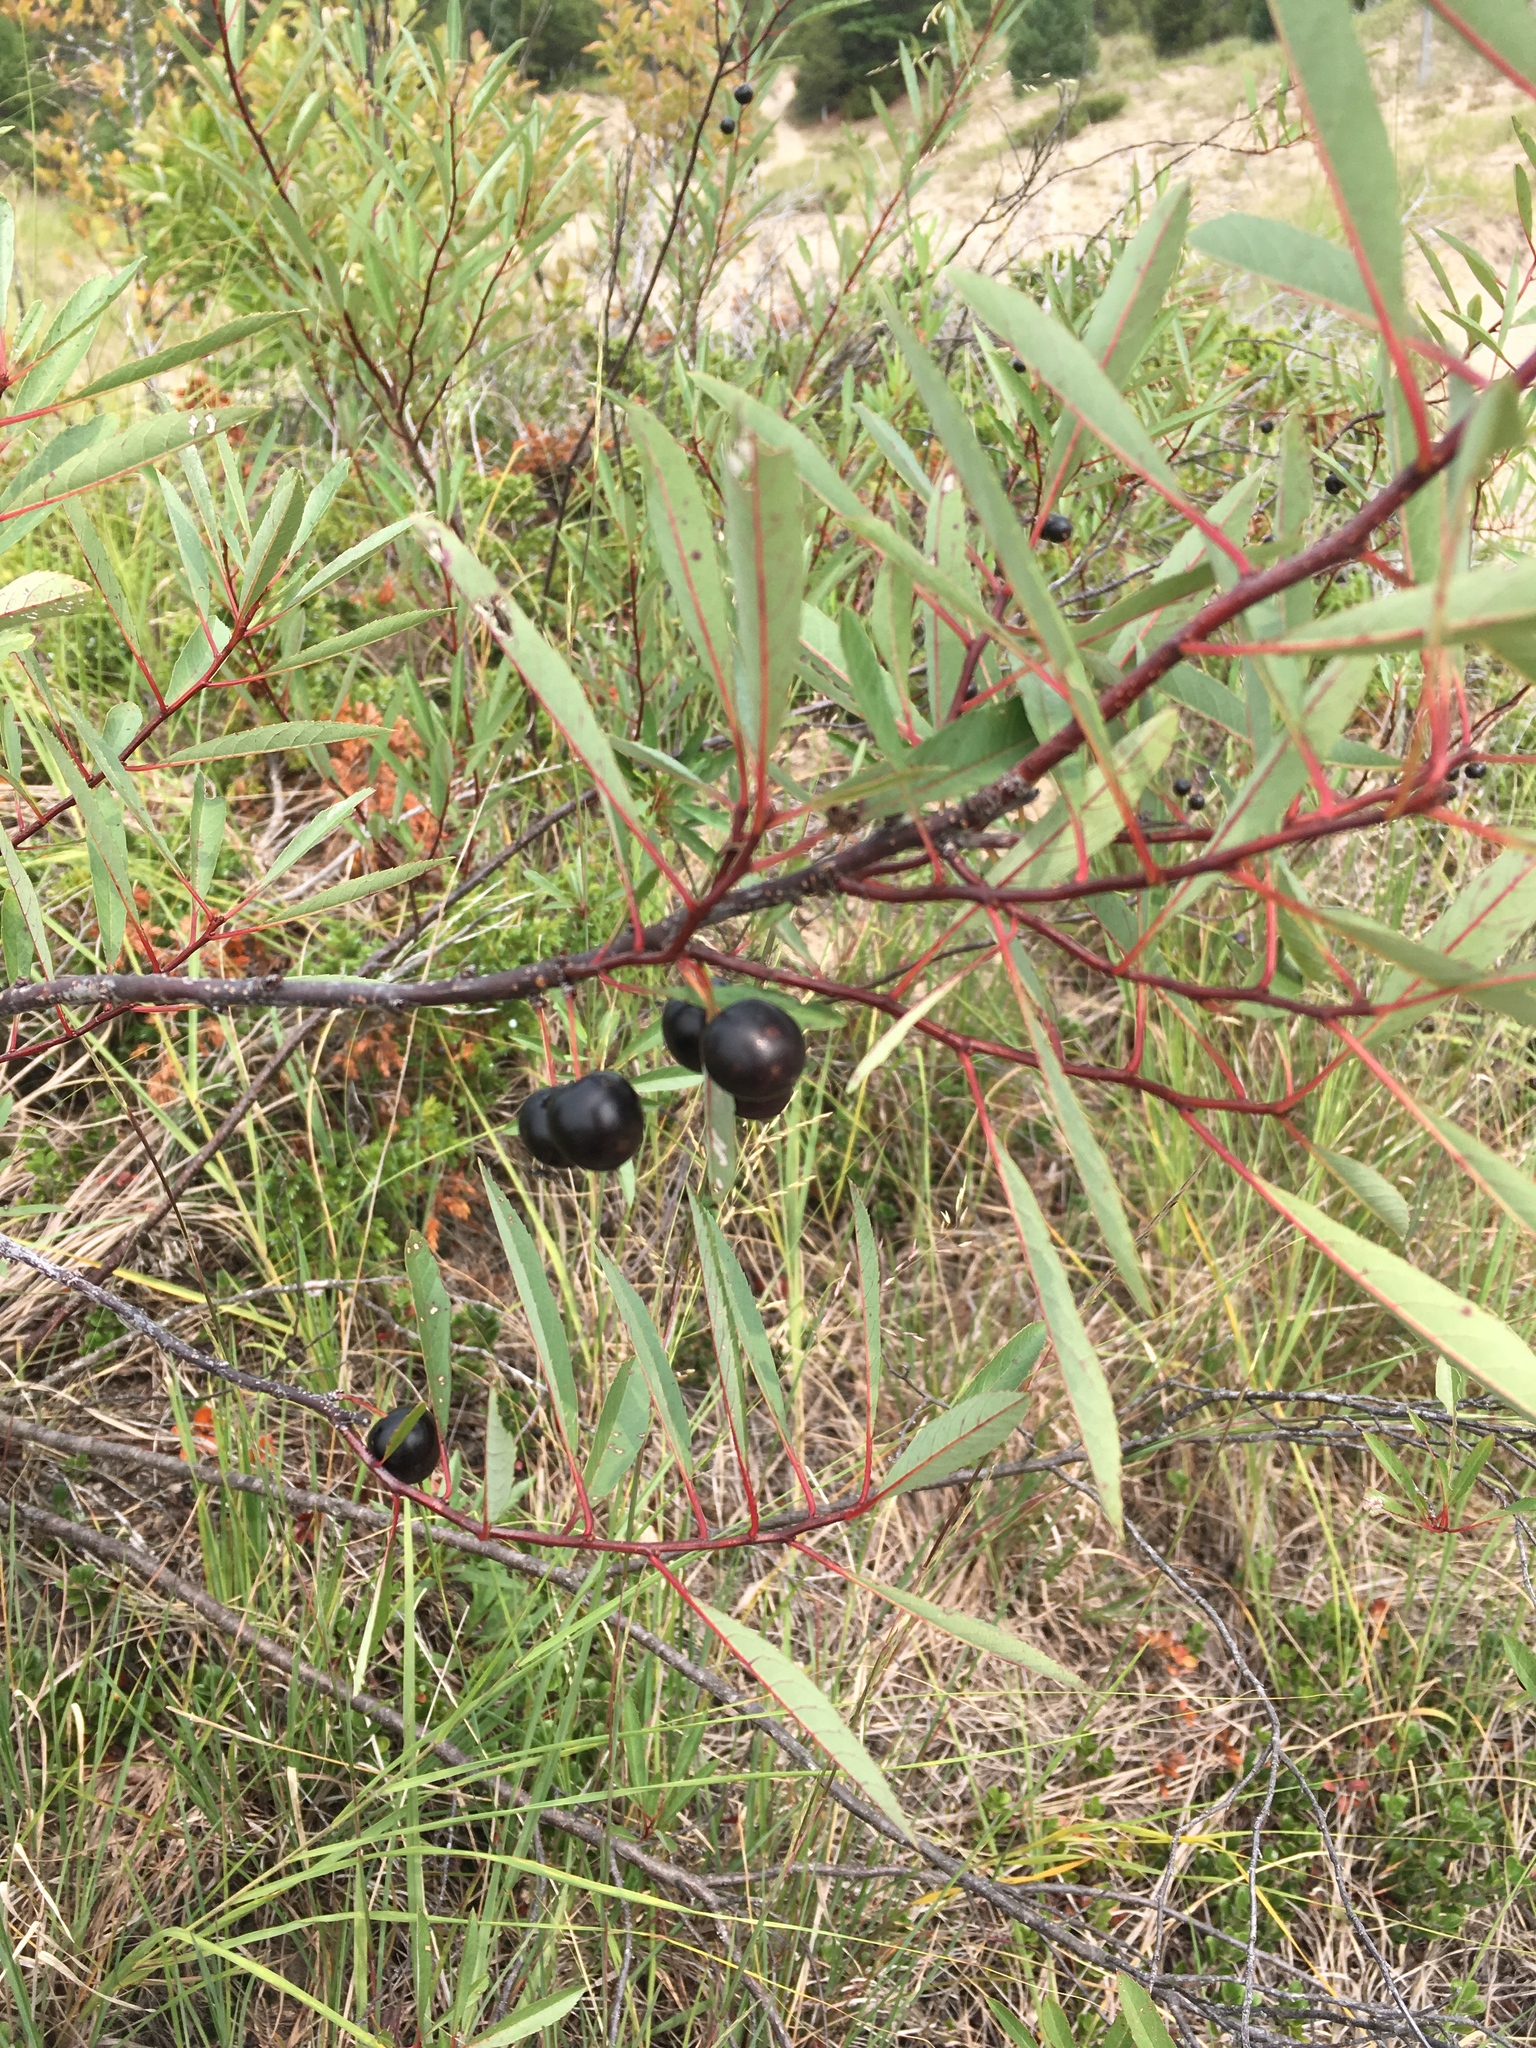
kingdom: Plantae
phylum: Tracheophyta
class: Magnoliopsida
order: Rosales
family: Rosaceae
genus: Prunus
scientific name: Prunus pumila
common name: Dwarf cherry
